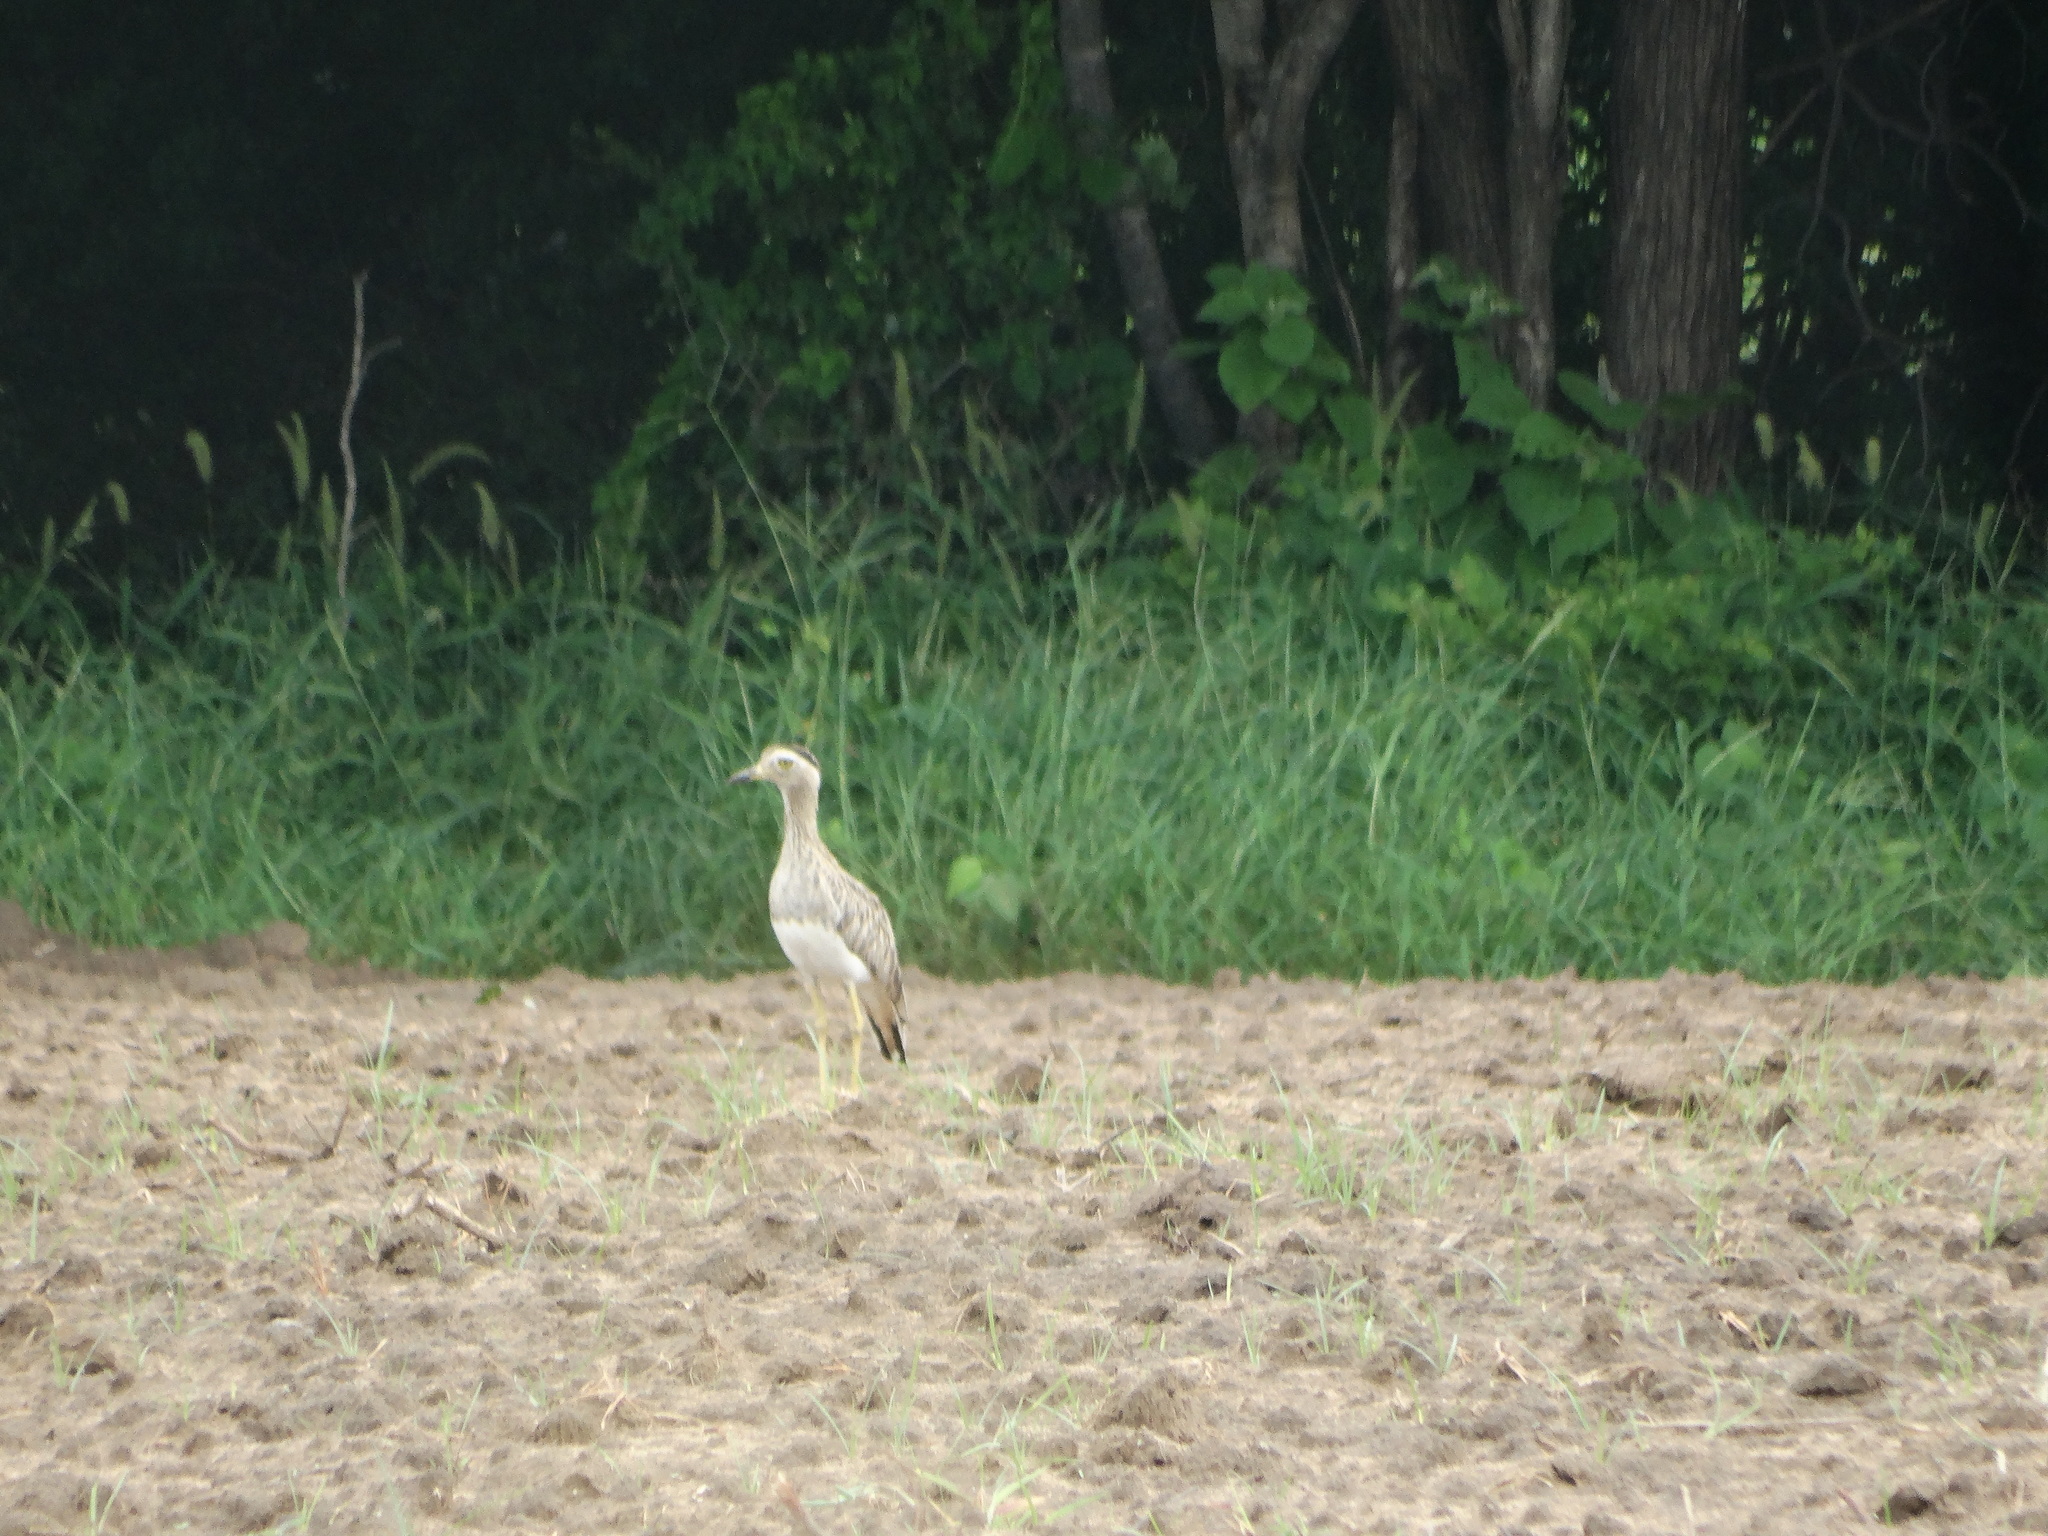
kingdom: Animalia
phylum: Chordata
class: Aves
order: Charadriiformes
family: Burhinidae
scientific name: Burhinidae
